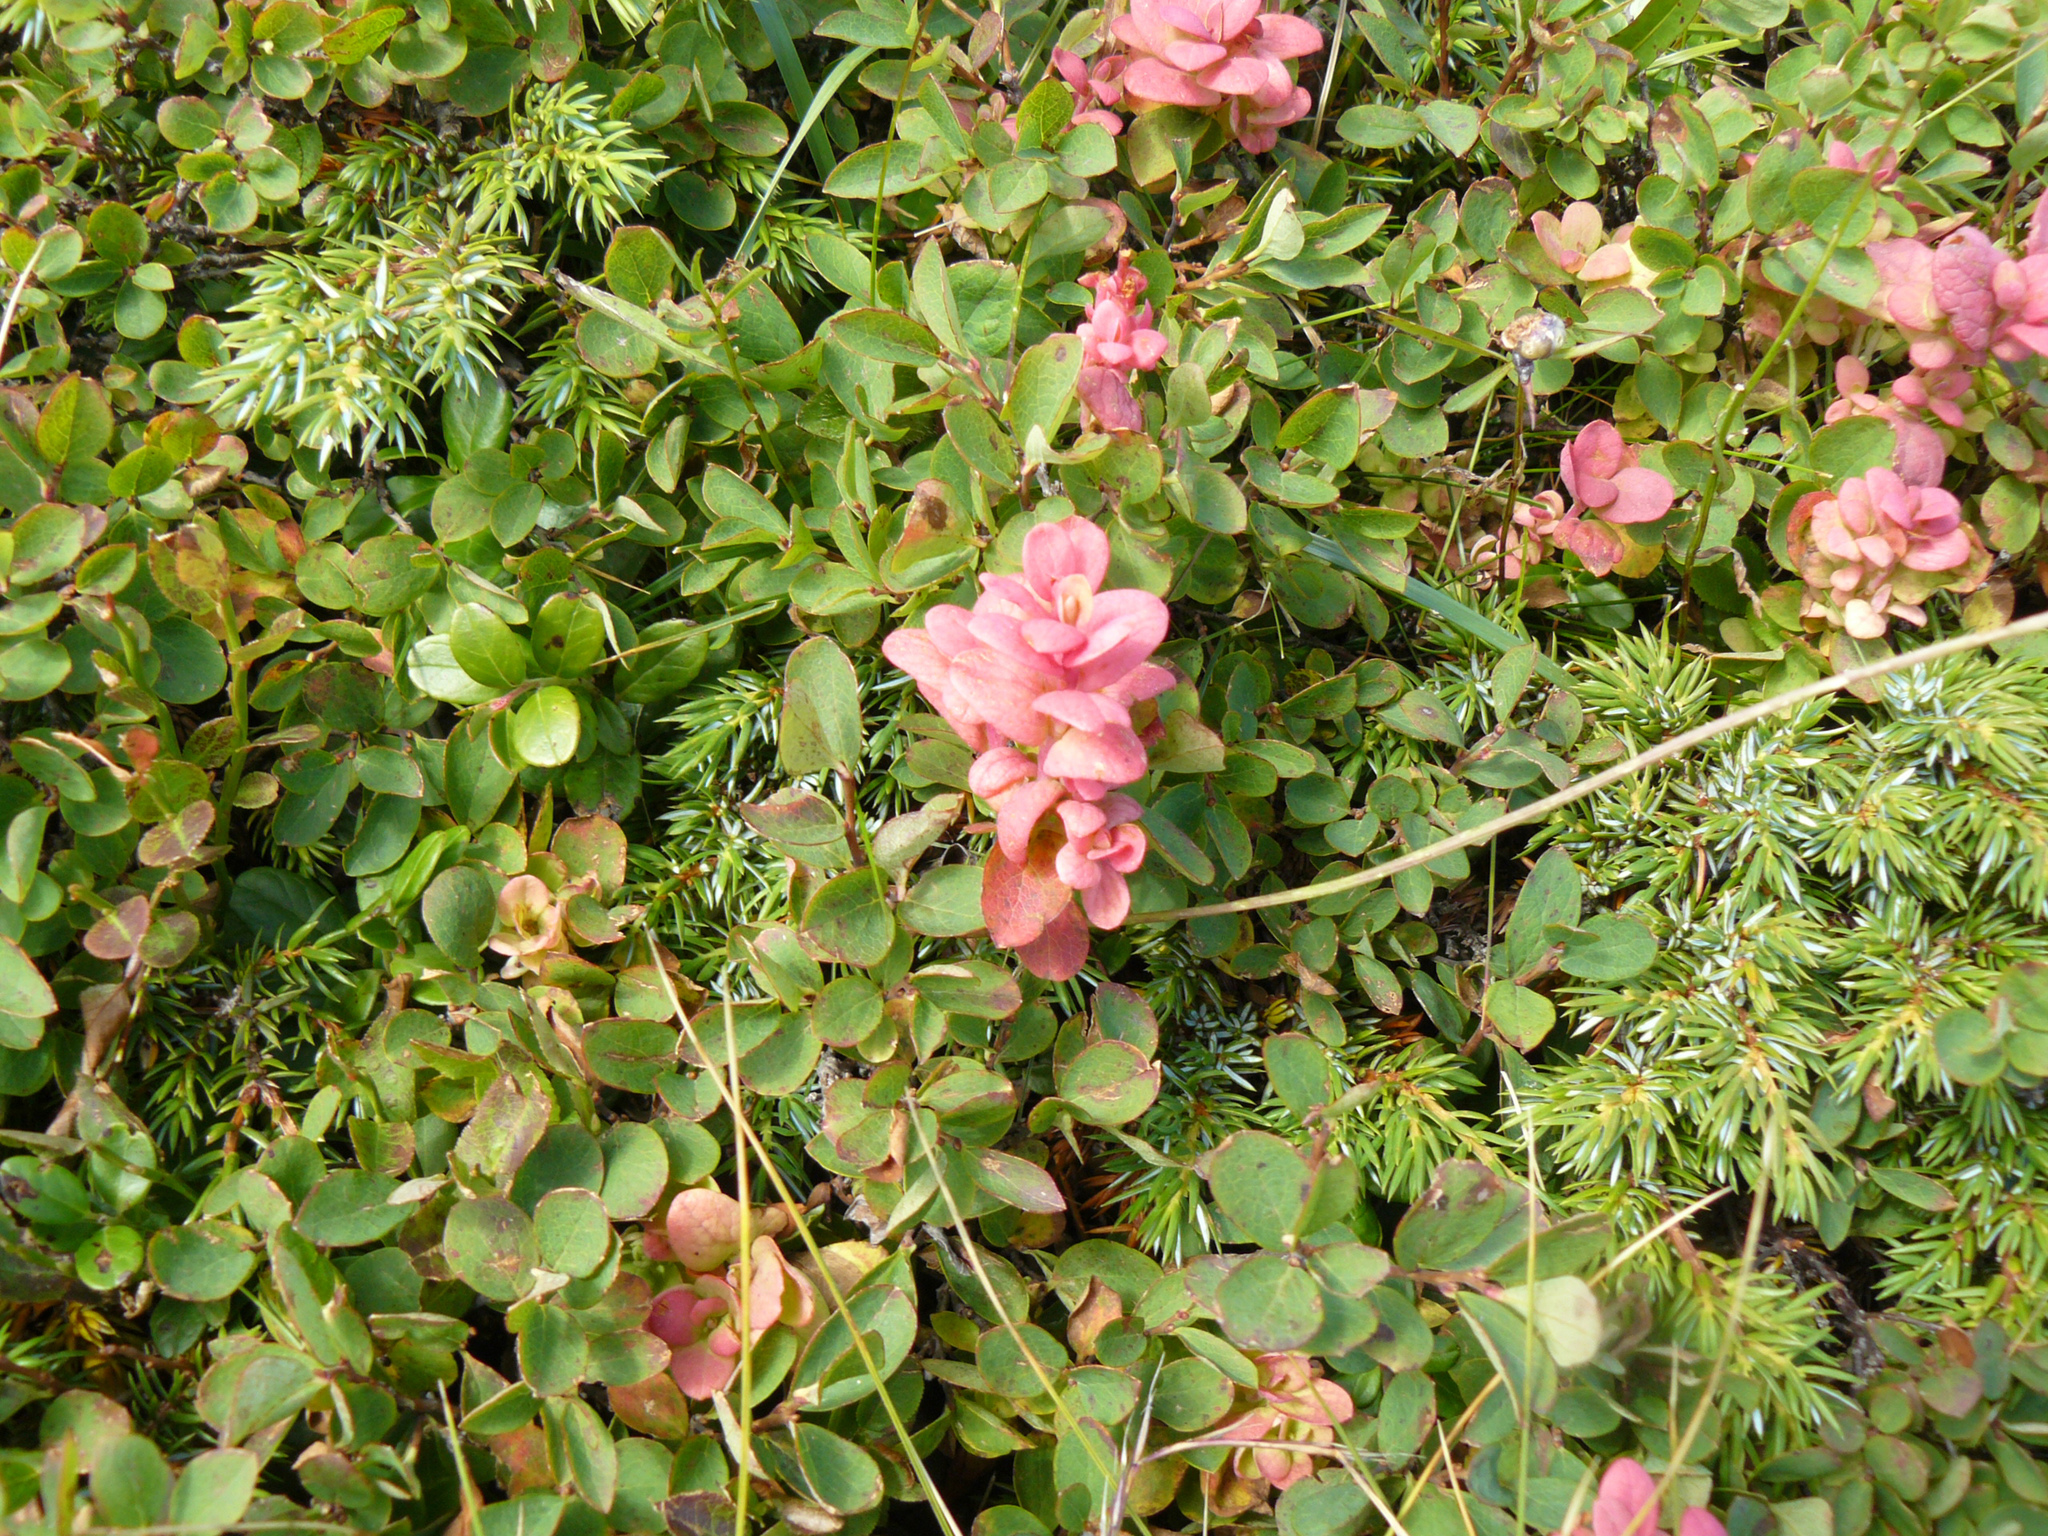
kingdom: Plantae
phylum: Tracheophyta
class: Magnoliopsida
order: Ericales
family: Ericaceae
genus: Vaccinium
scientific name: Vaccinium uliginosum
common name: Bog bilberry
